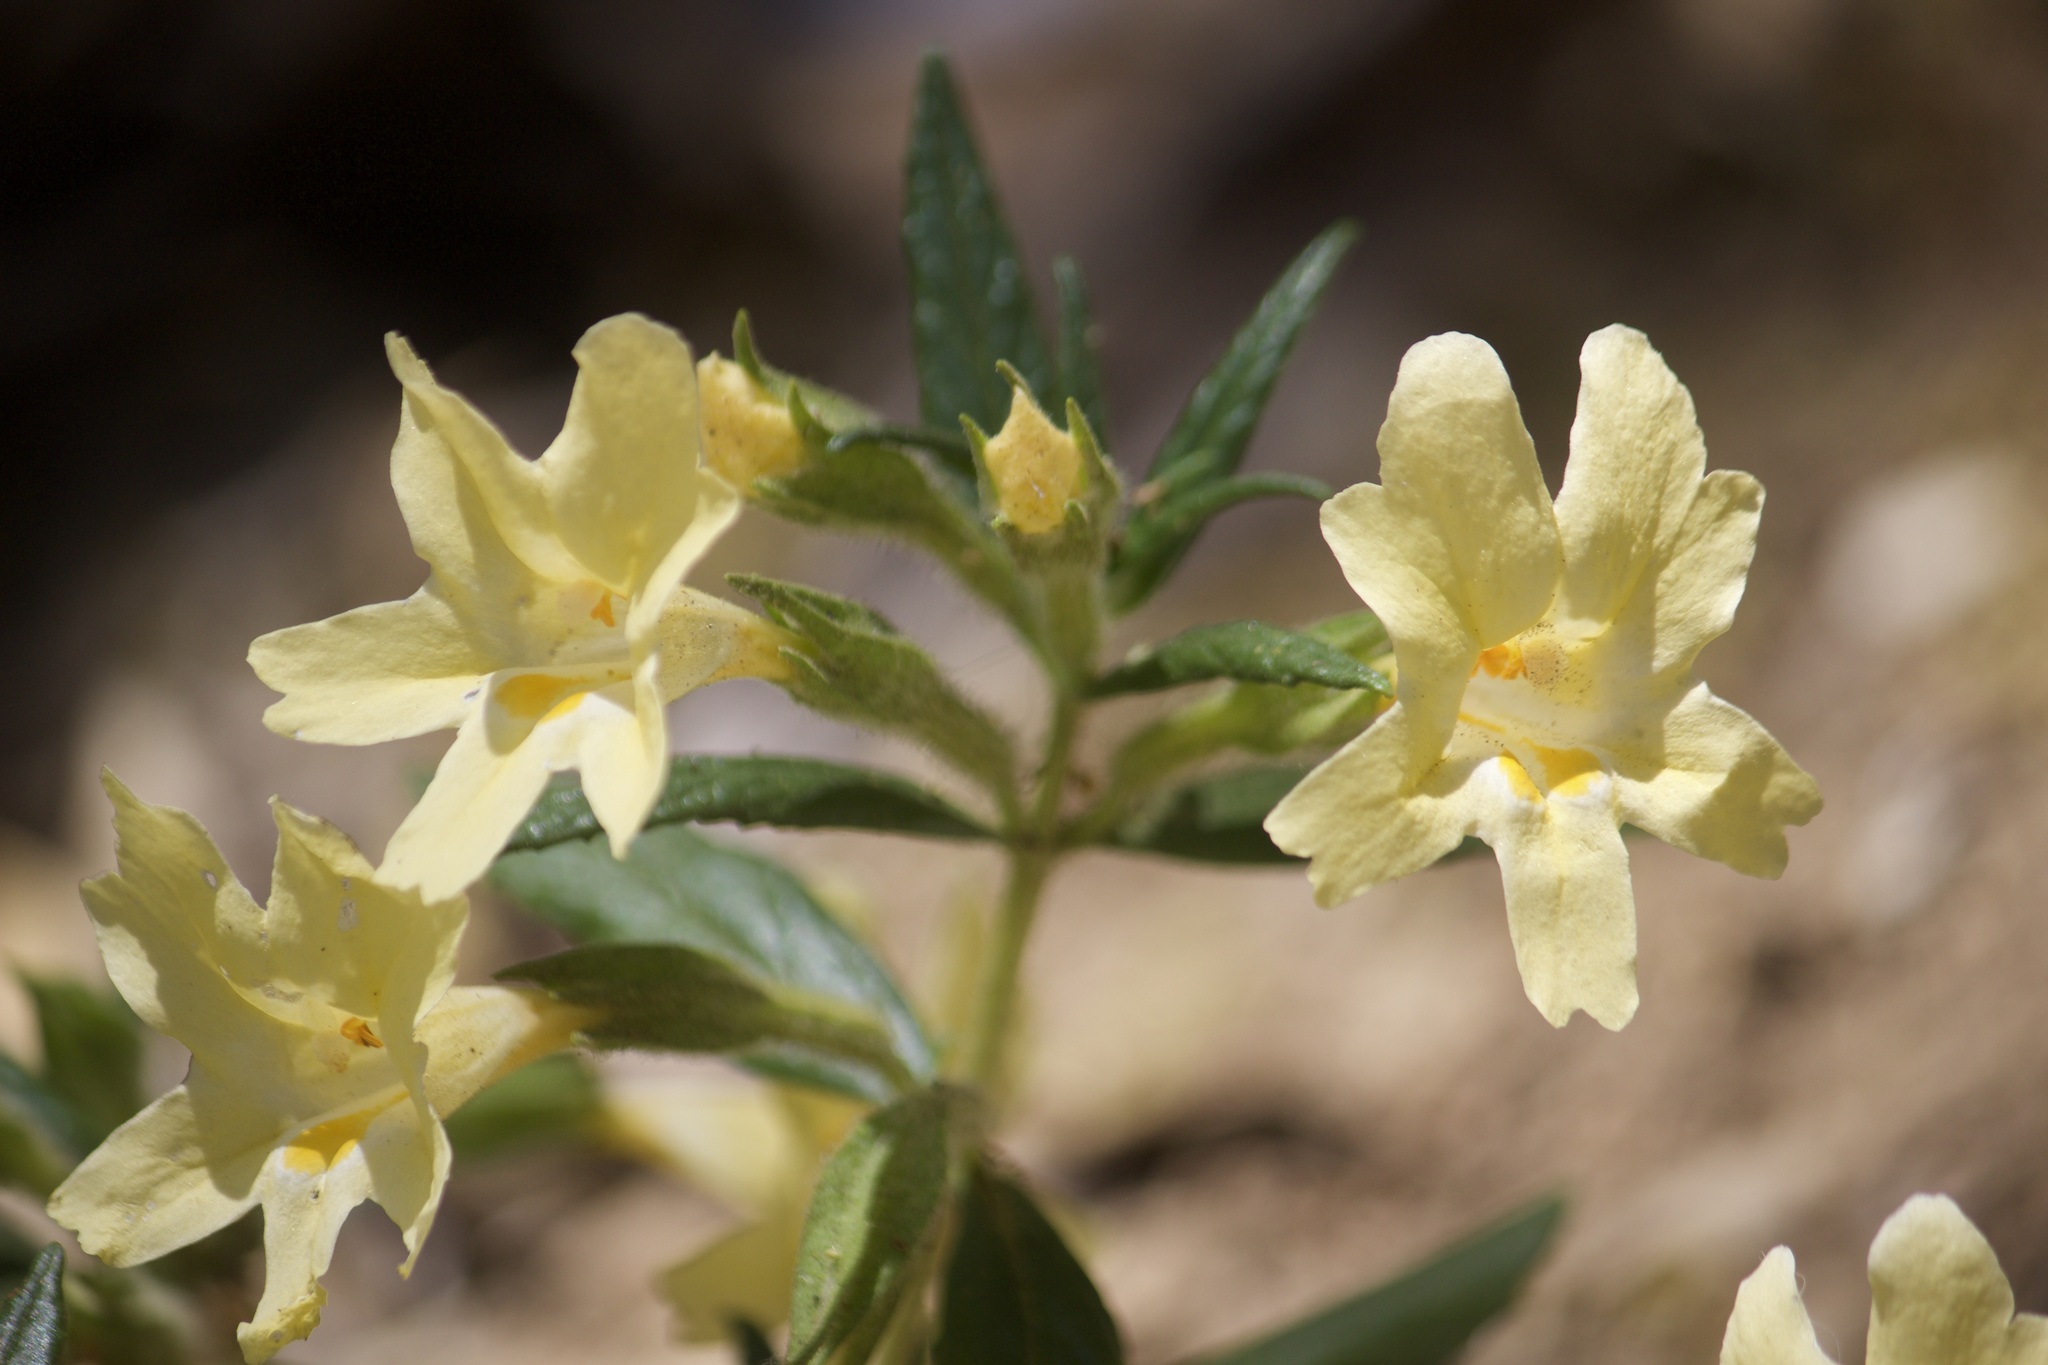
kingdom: Plantae
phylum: Tracheophyta
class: Magnoliopsida
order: Lamiales
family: Phrymaceae
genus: Diplacus
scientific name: Diplacus longiflorus
